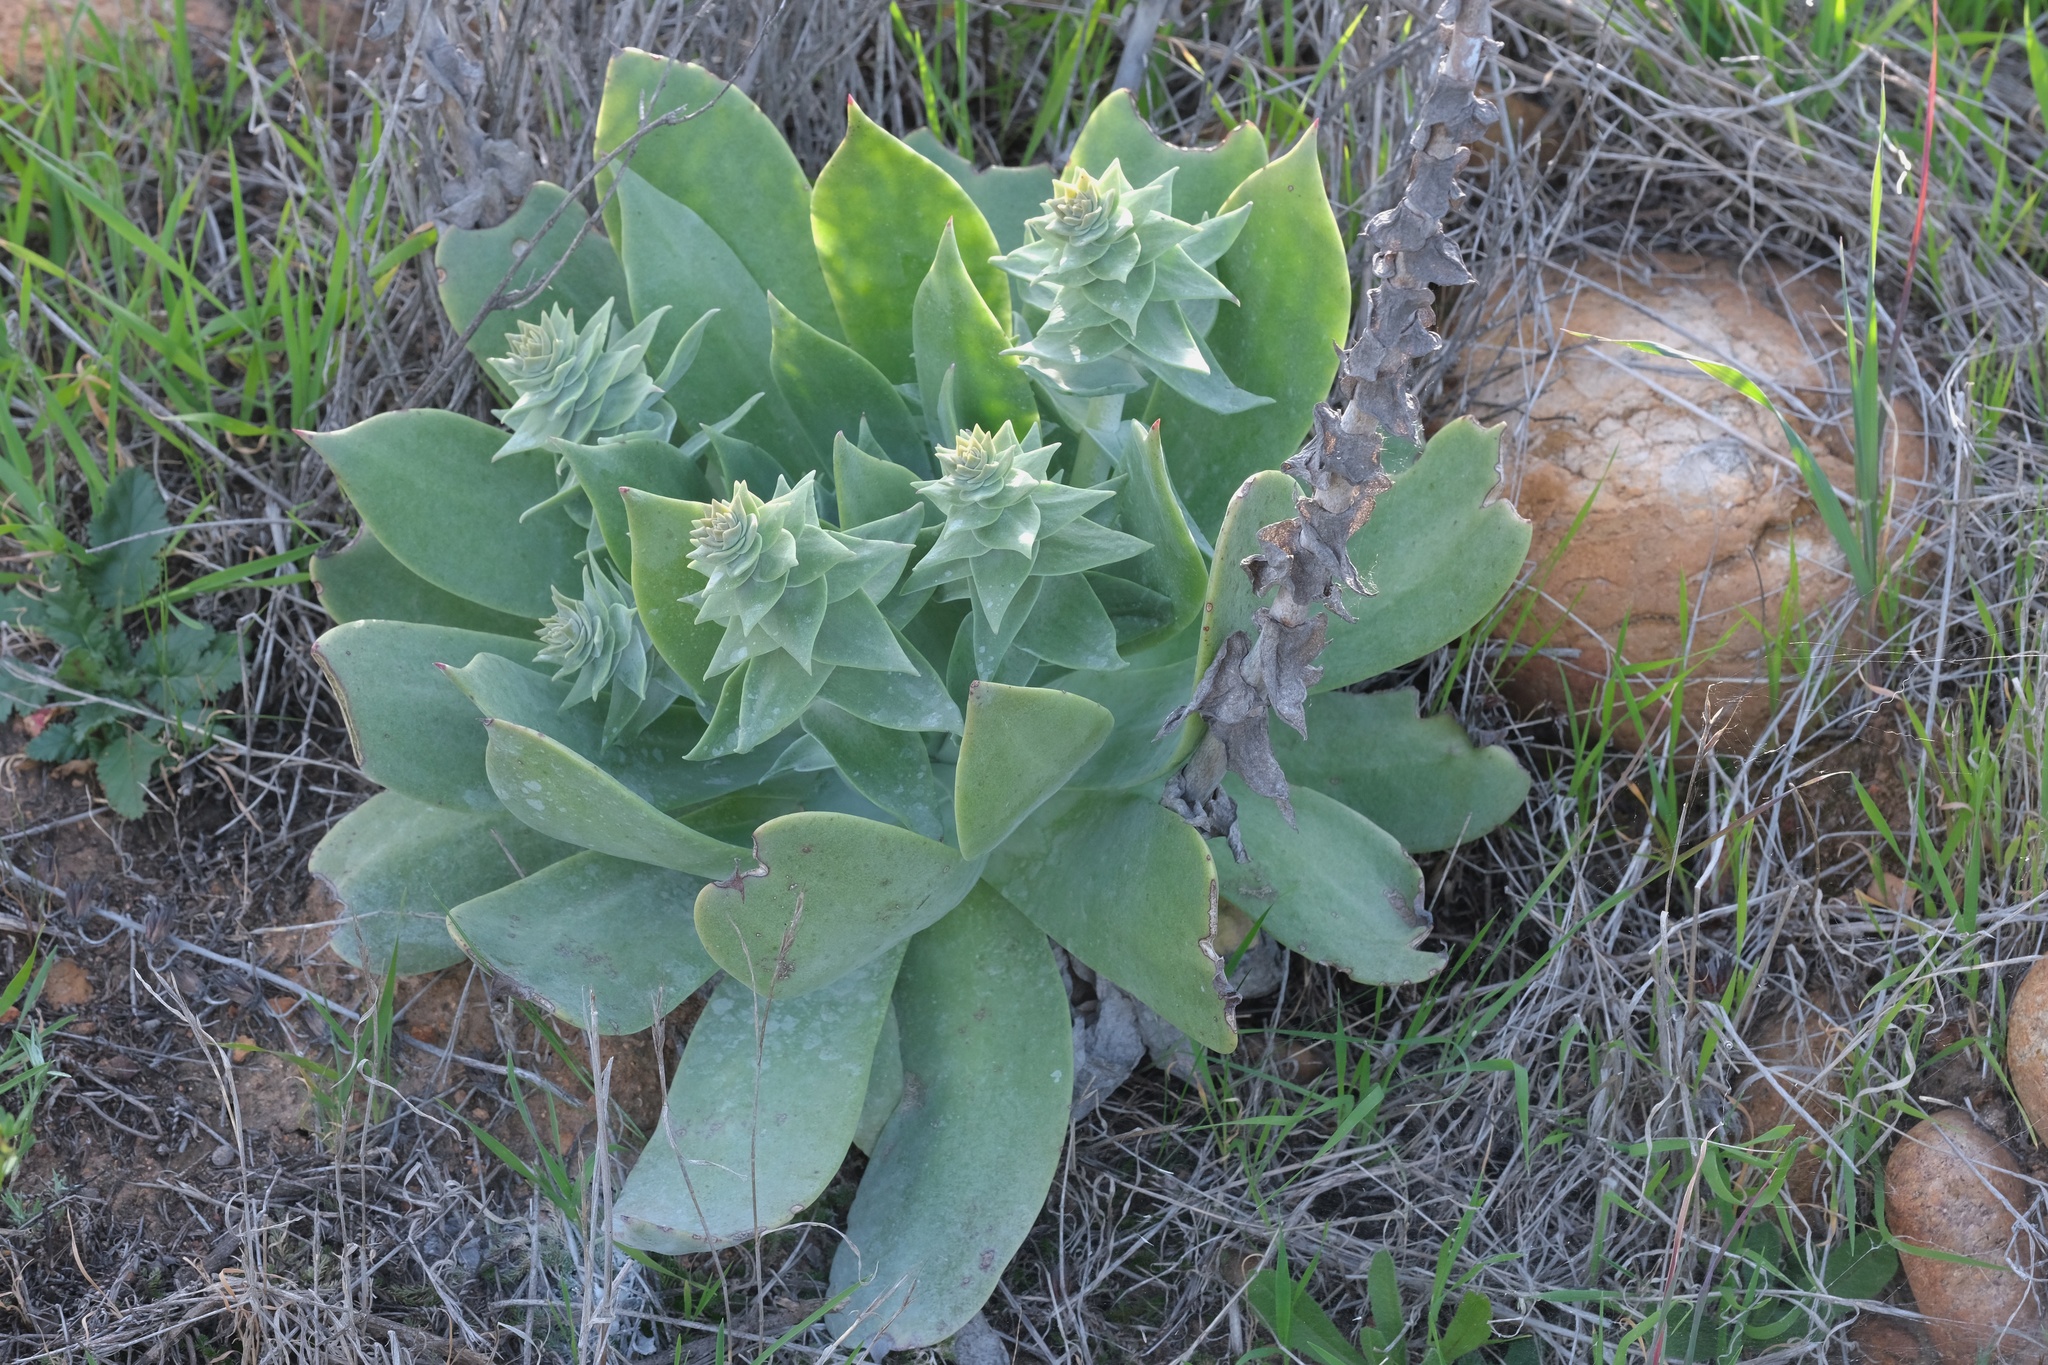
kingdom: Plantae
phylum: Tracheophyta
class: Magnoliopsida
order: Saxifragales
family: Crassulaceae
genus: Dudleya
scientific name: Dudleya pulverulenta
